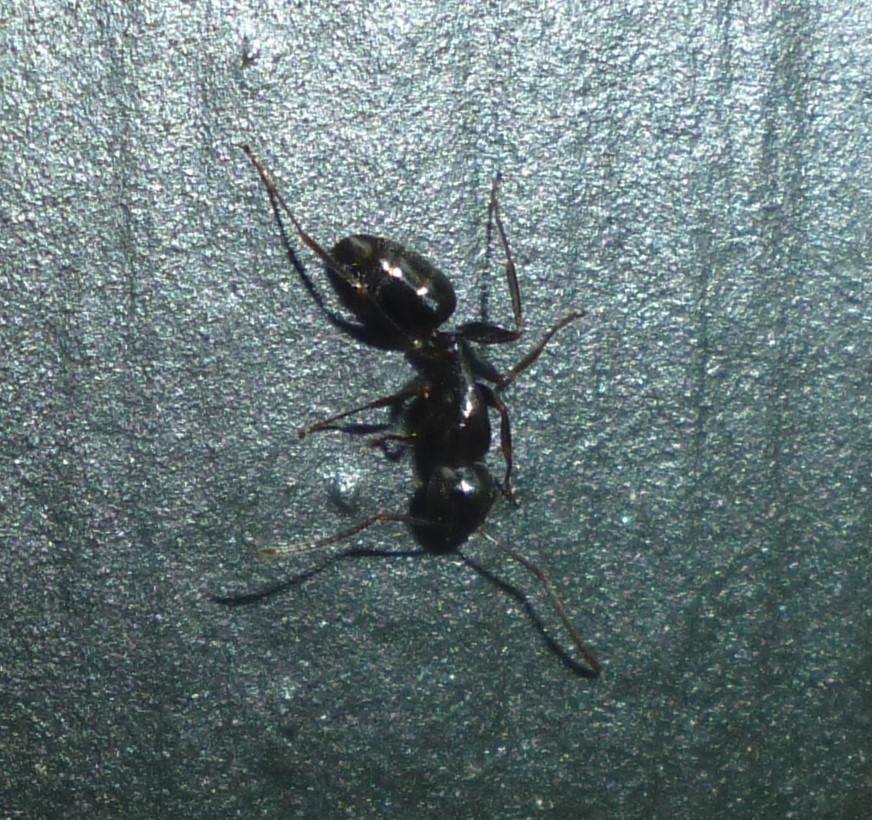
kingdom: Animalia
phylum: Arthropoda
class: Insecta
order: Hymenoptera
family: Formicidae
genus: Myrmentoma
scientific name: Myrmentoma
